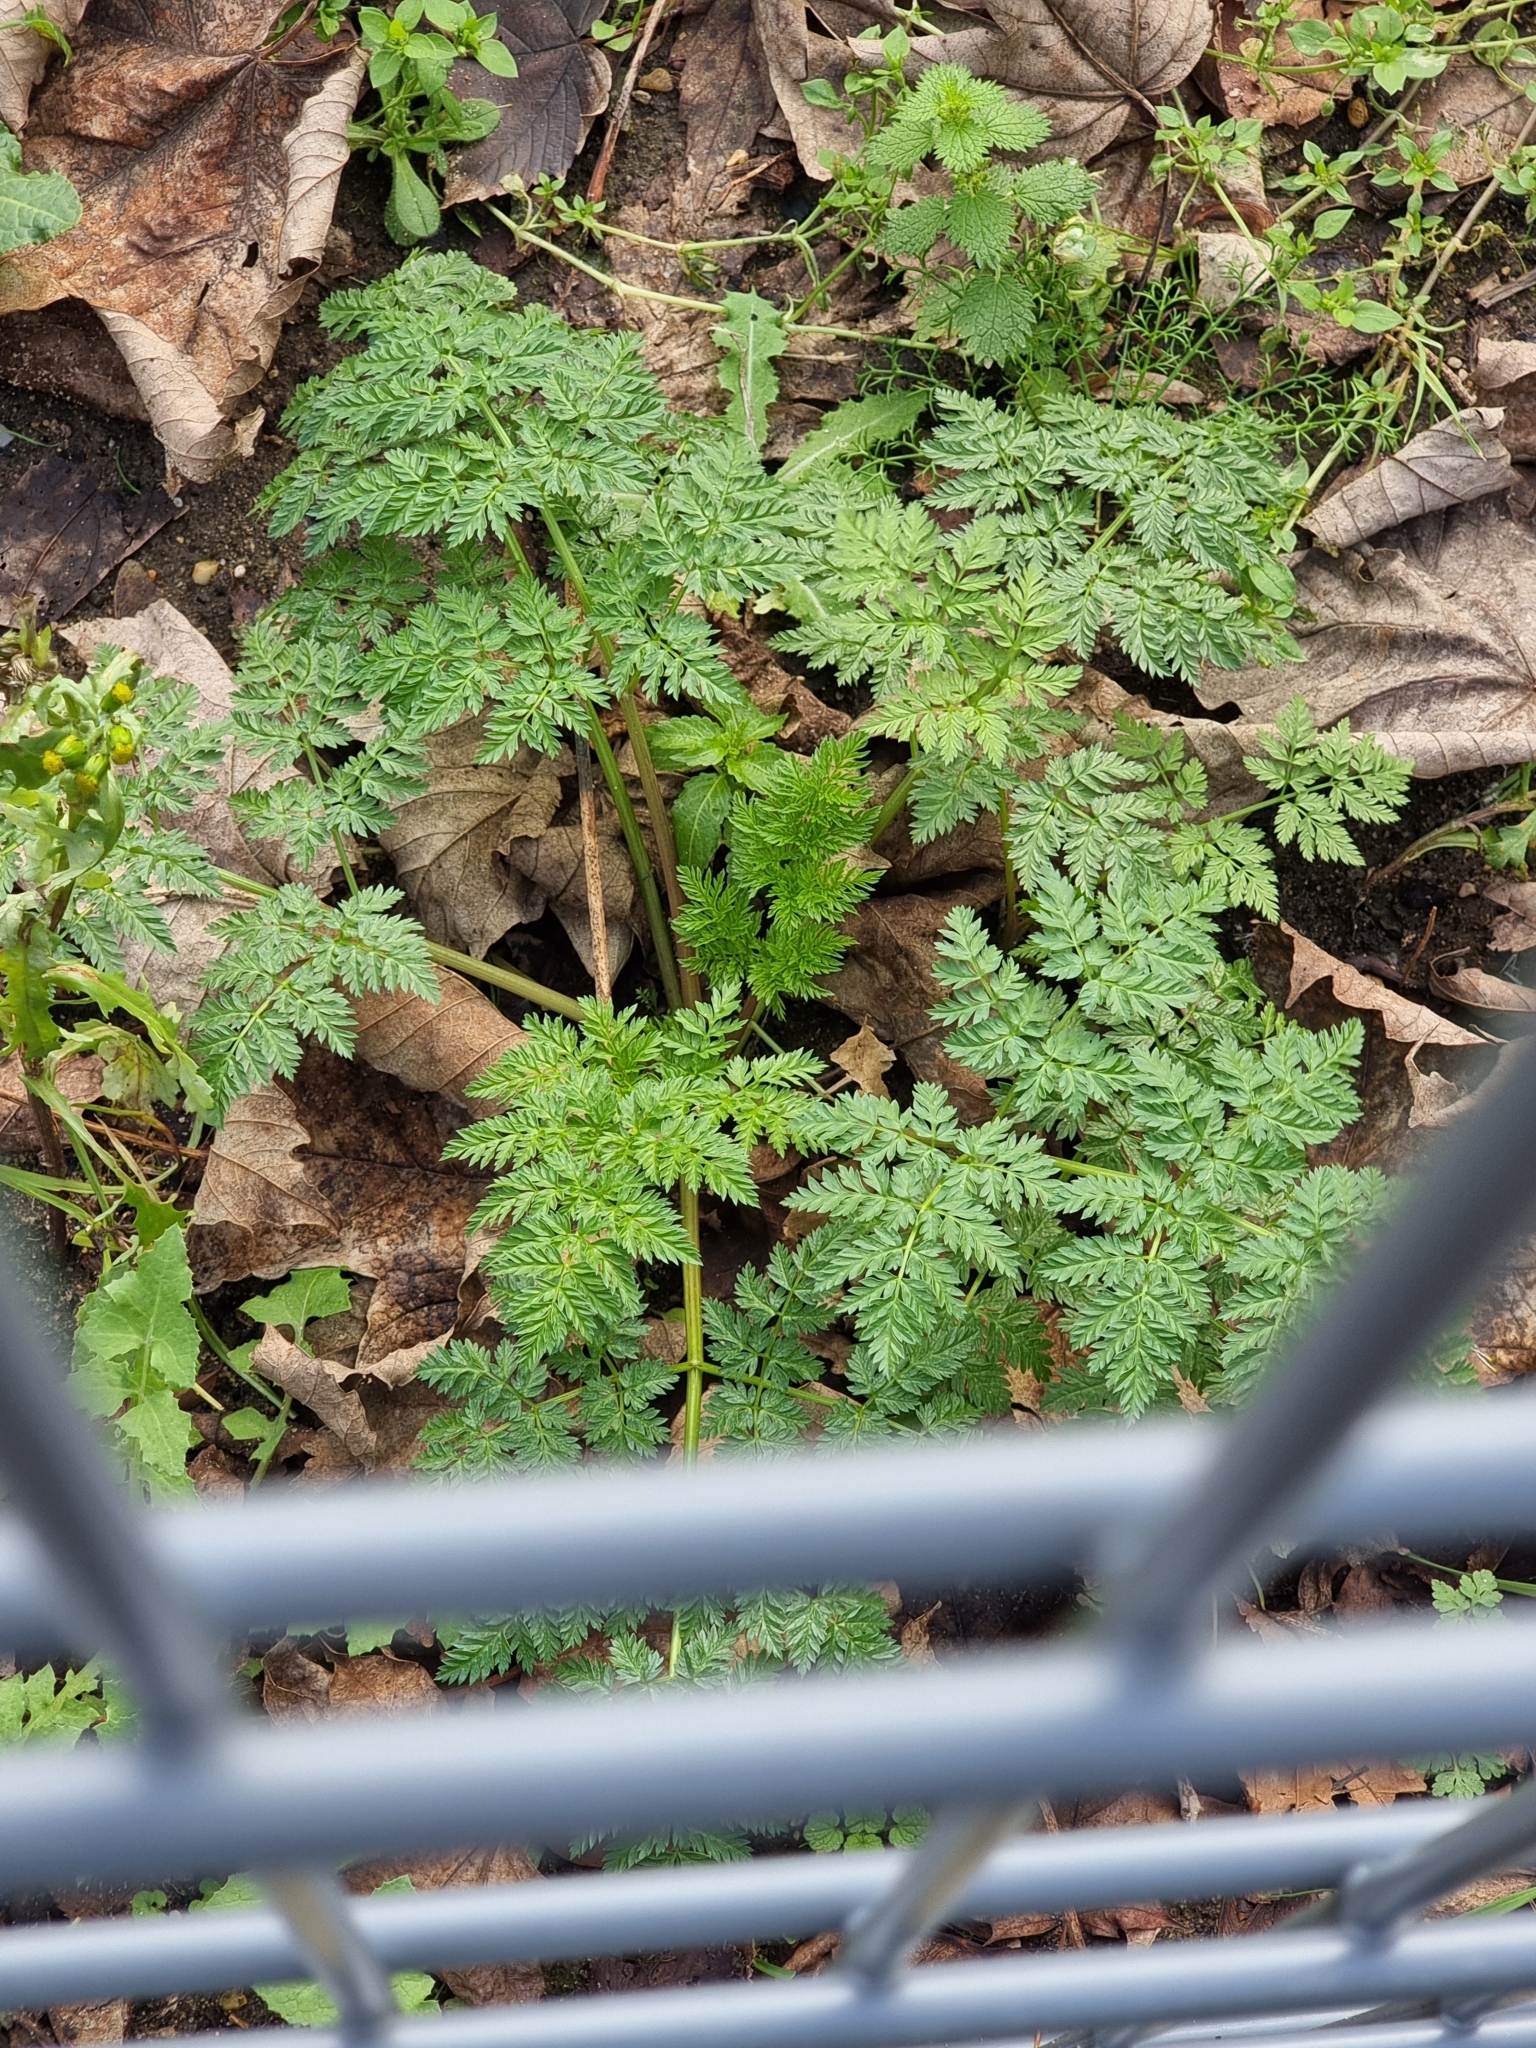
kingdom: Plantae
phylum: Tracheophyta
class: Magnoliopsida
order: Apiales
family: Apiaceae
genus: Conium
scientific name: Conium maculatum
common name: Hemlock
